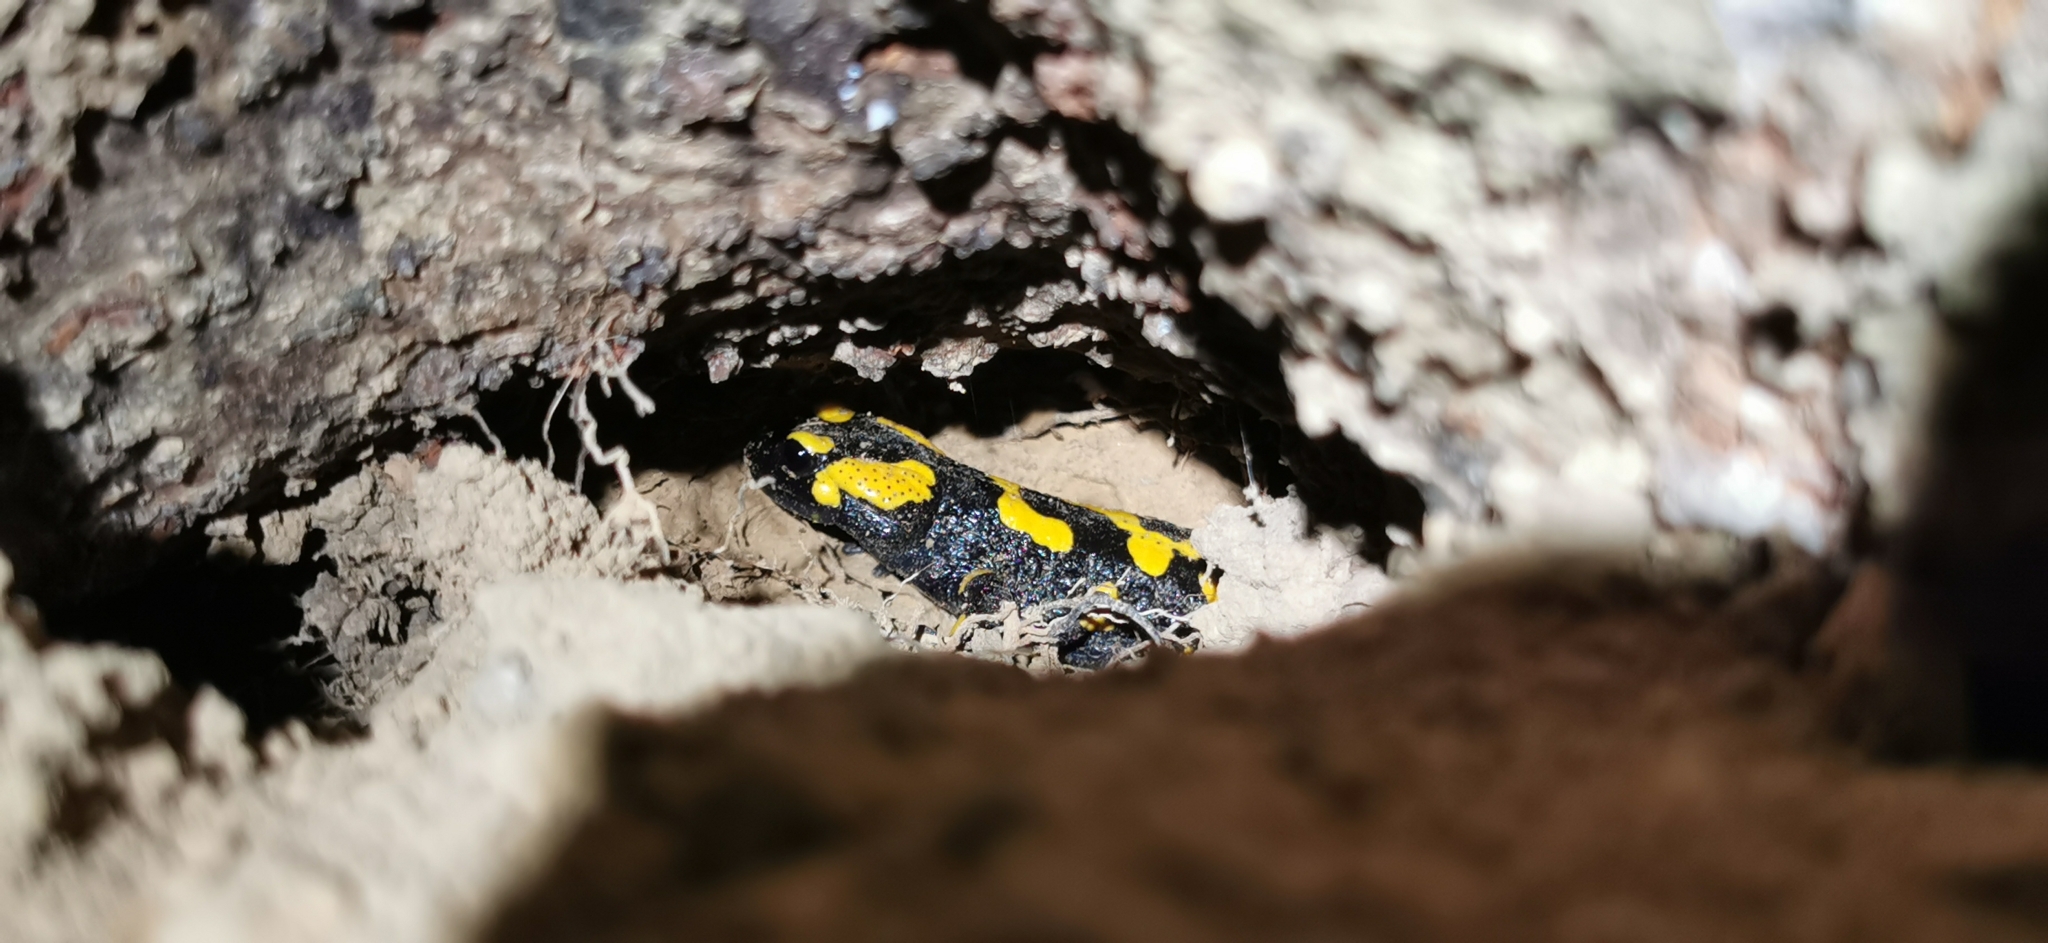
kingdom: Animalia
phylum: Chordata
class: Amphibia
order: Caudata
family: Salamandridae
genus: Salamandra
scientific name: Salamandra salamandra
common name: Fire salamander
